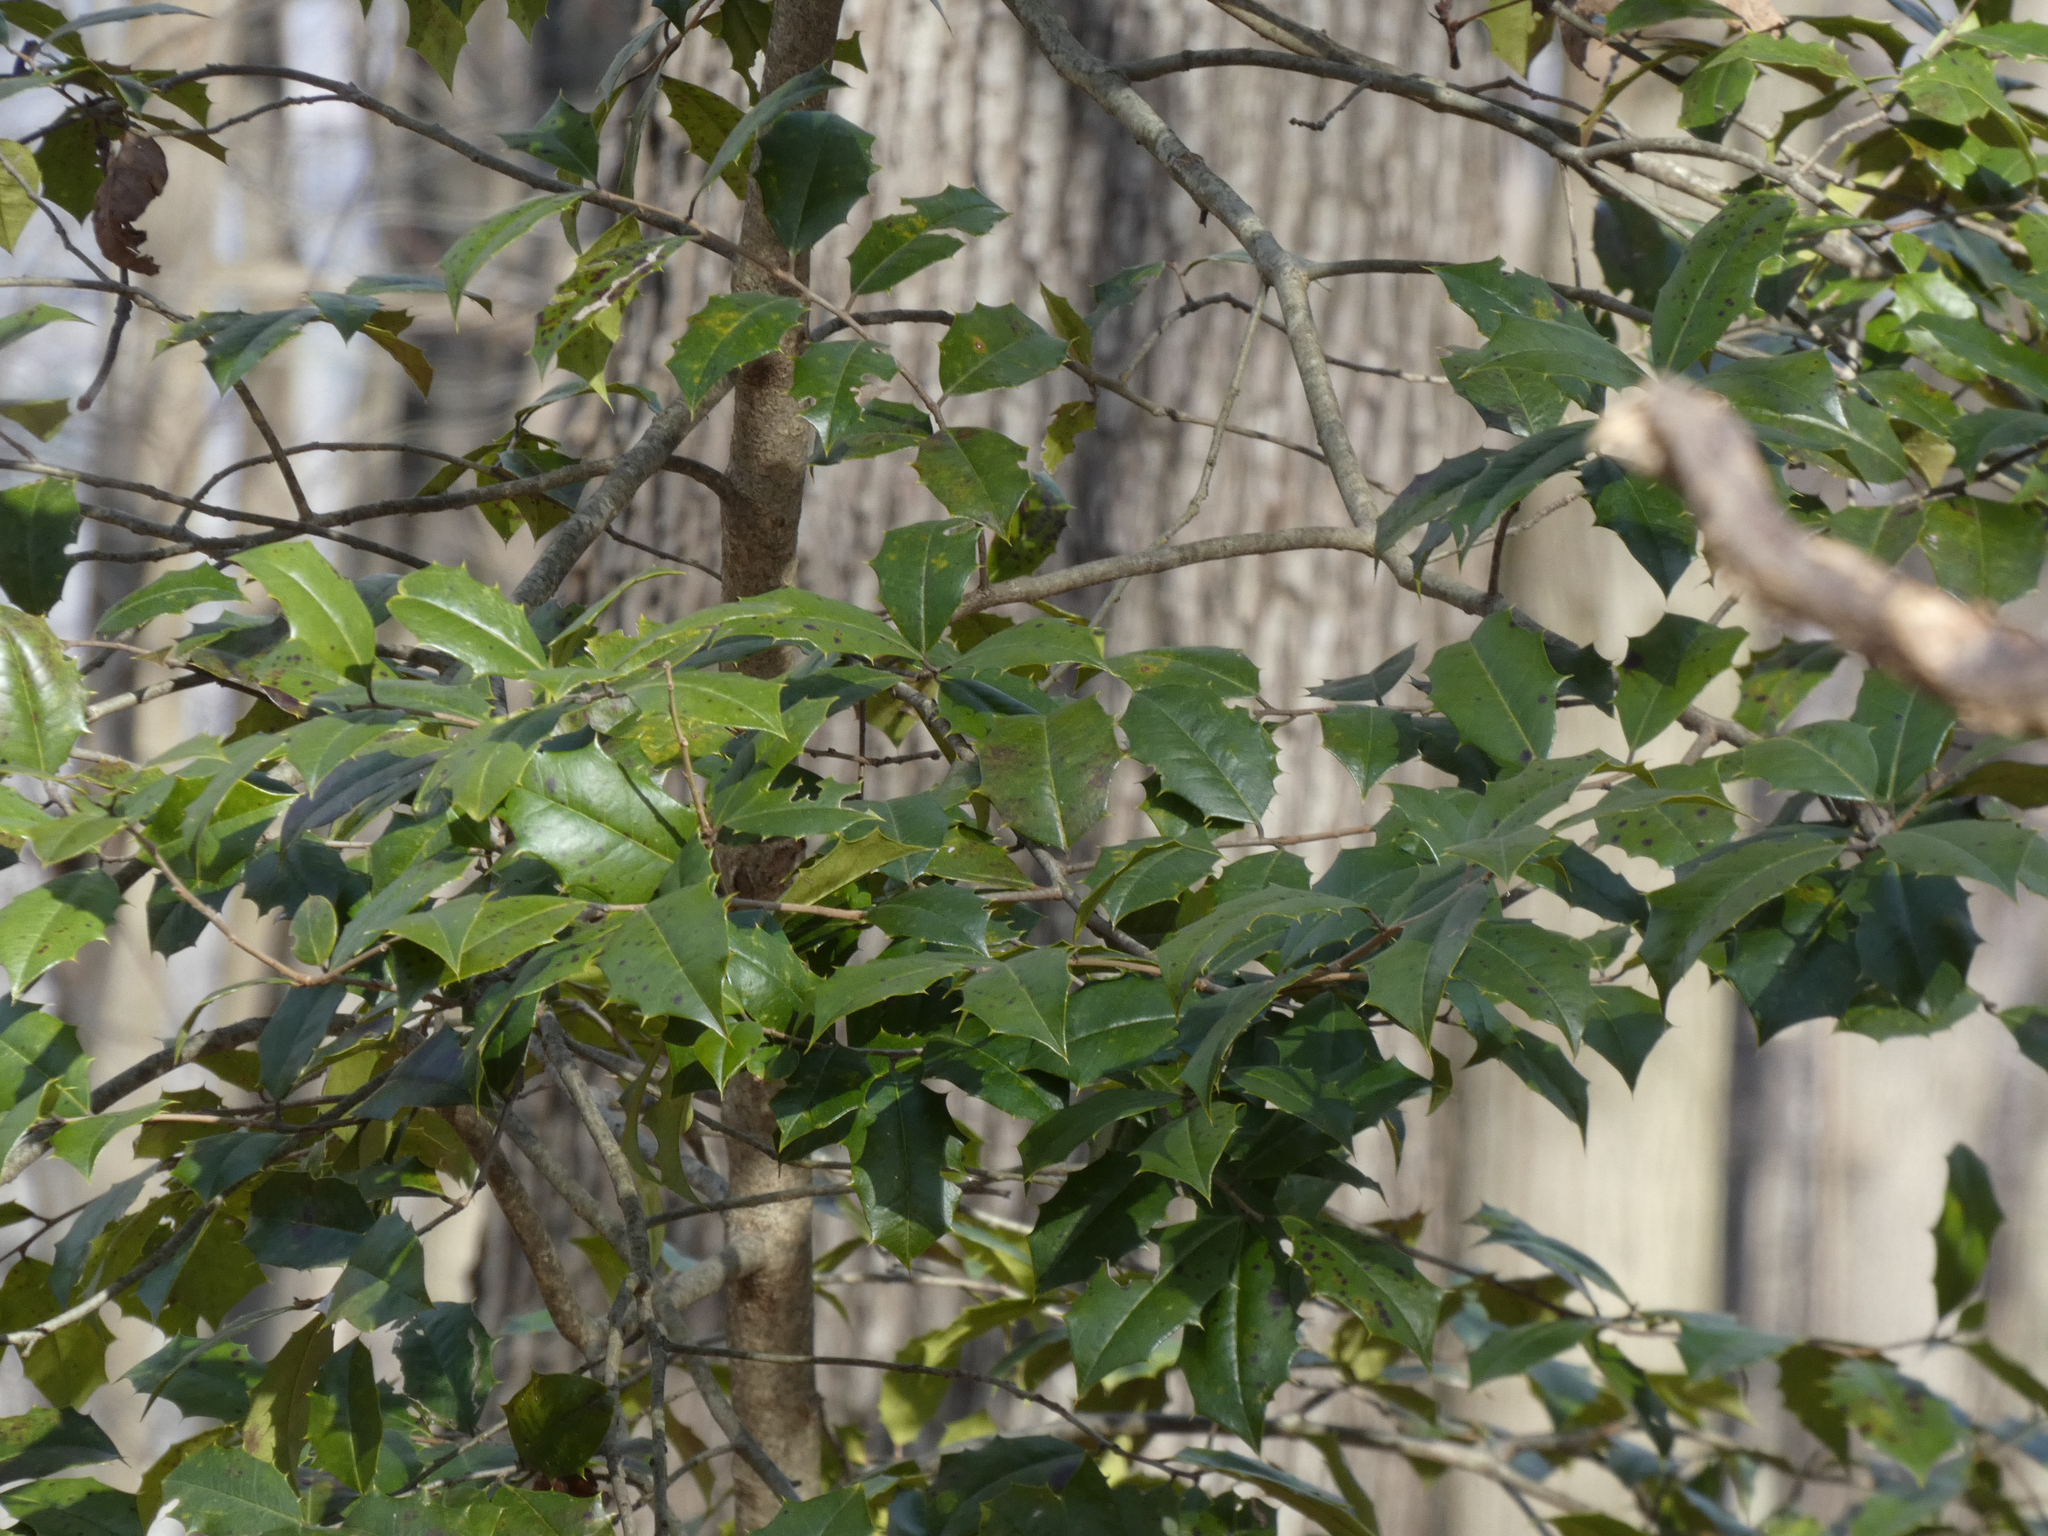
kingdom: Plantae
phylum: Tracheophyta
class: Magnoliopsida
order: Aquifoliales
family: Aquifoliaceae
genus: Ilex
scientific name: Ilex opaca
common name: American holly
